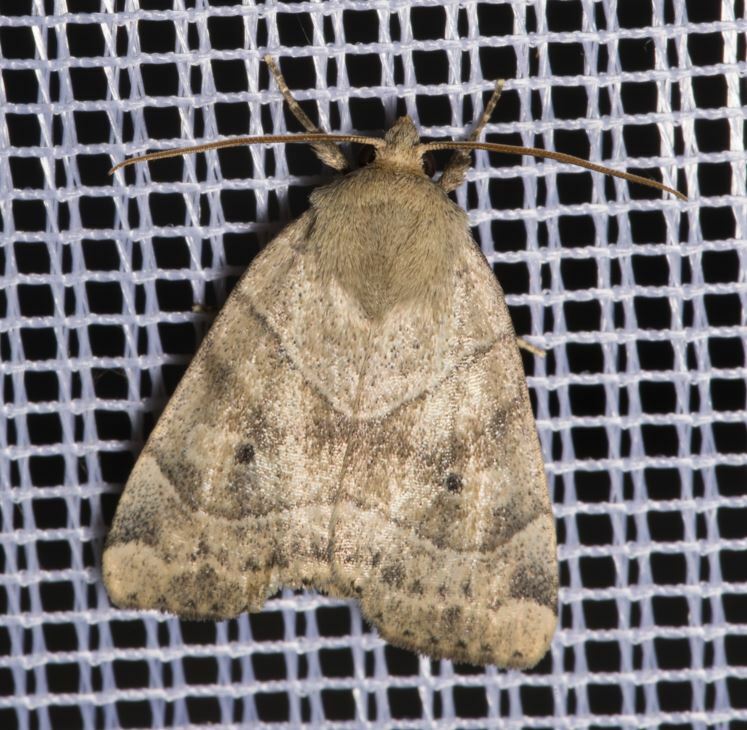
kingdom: Animalia
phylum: Arthropoda
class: Insecta
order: Lepidoptera
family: Noctuidae
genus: Cosmia
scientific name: Cosmia trapezina
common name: Dun-bar
